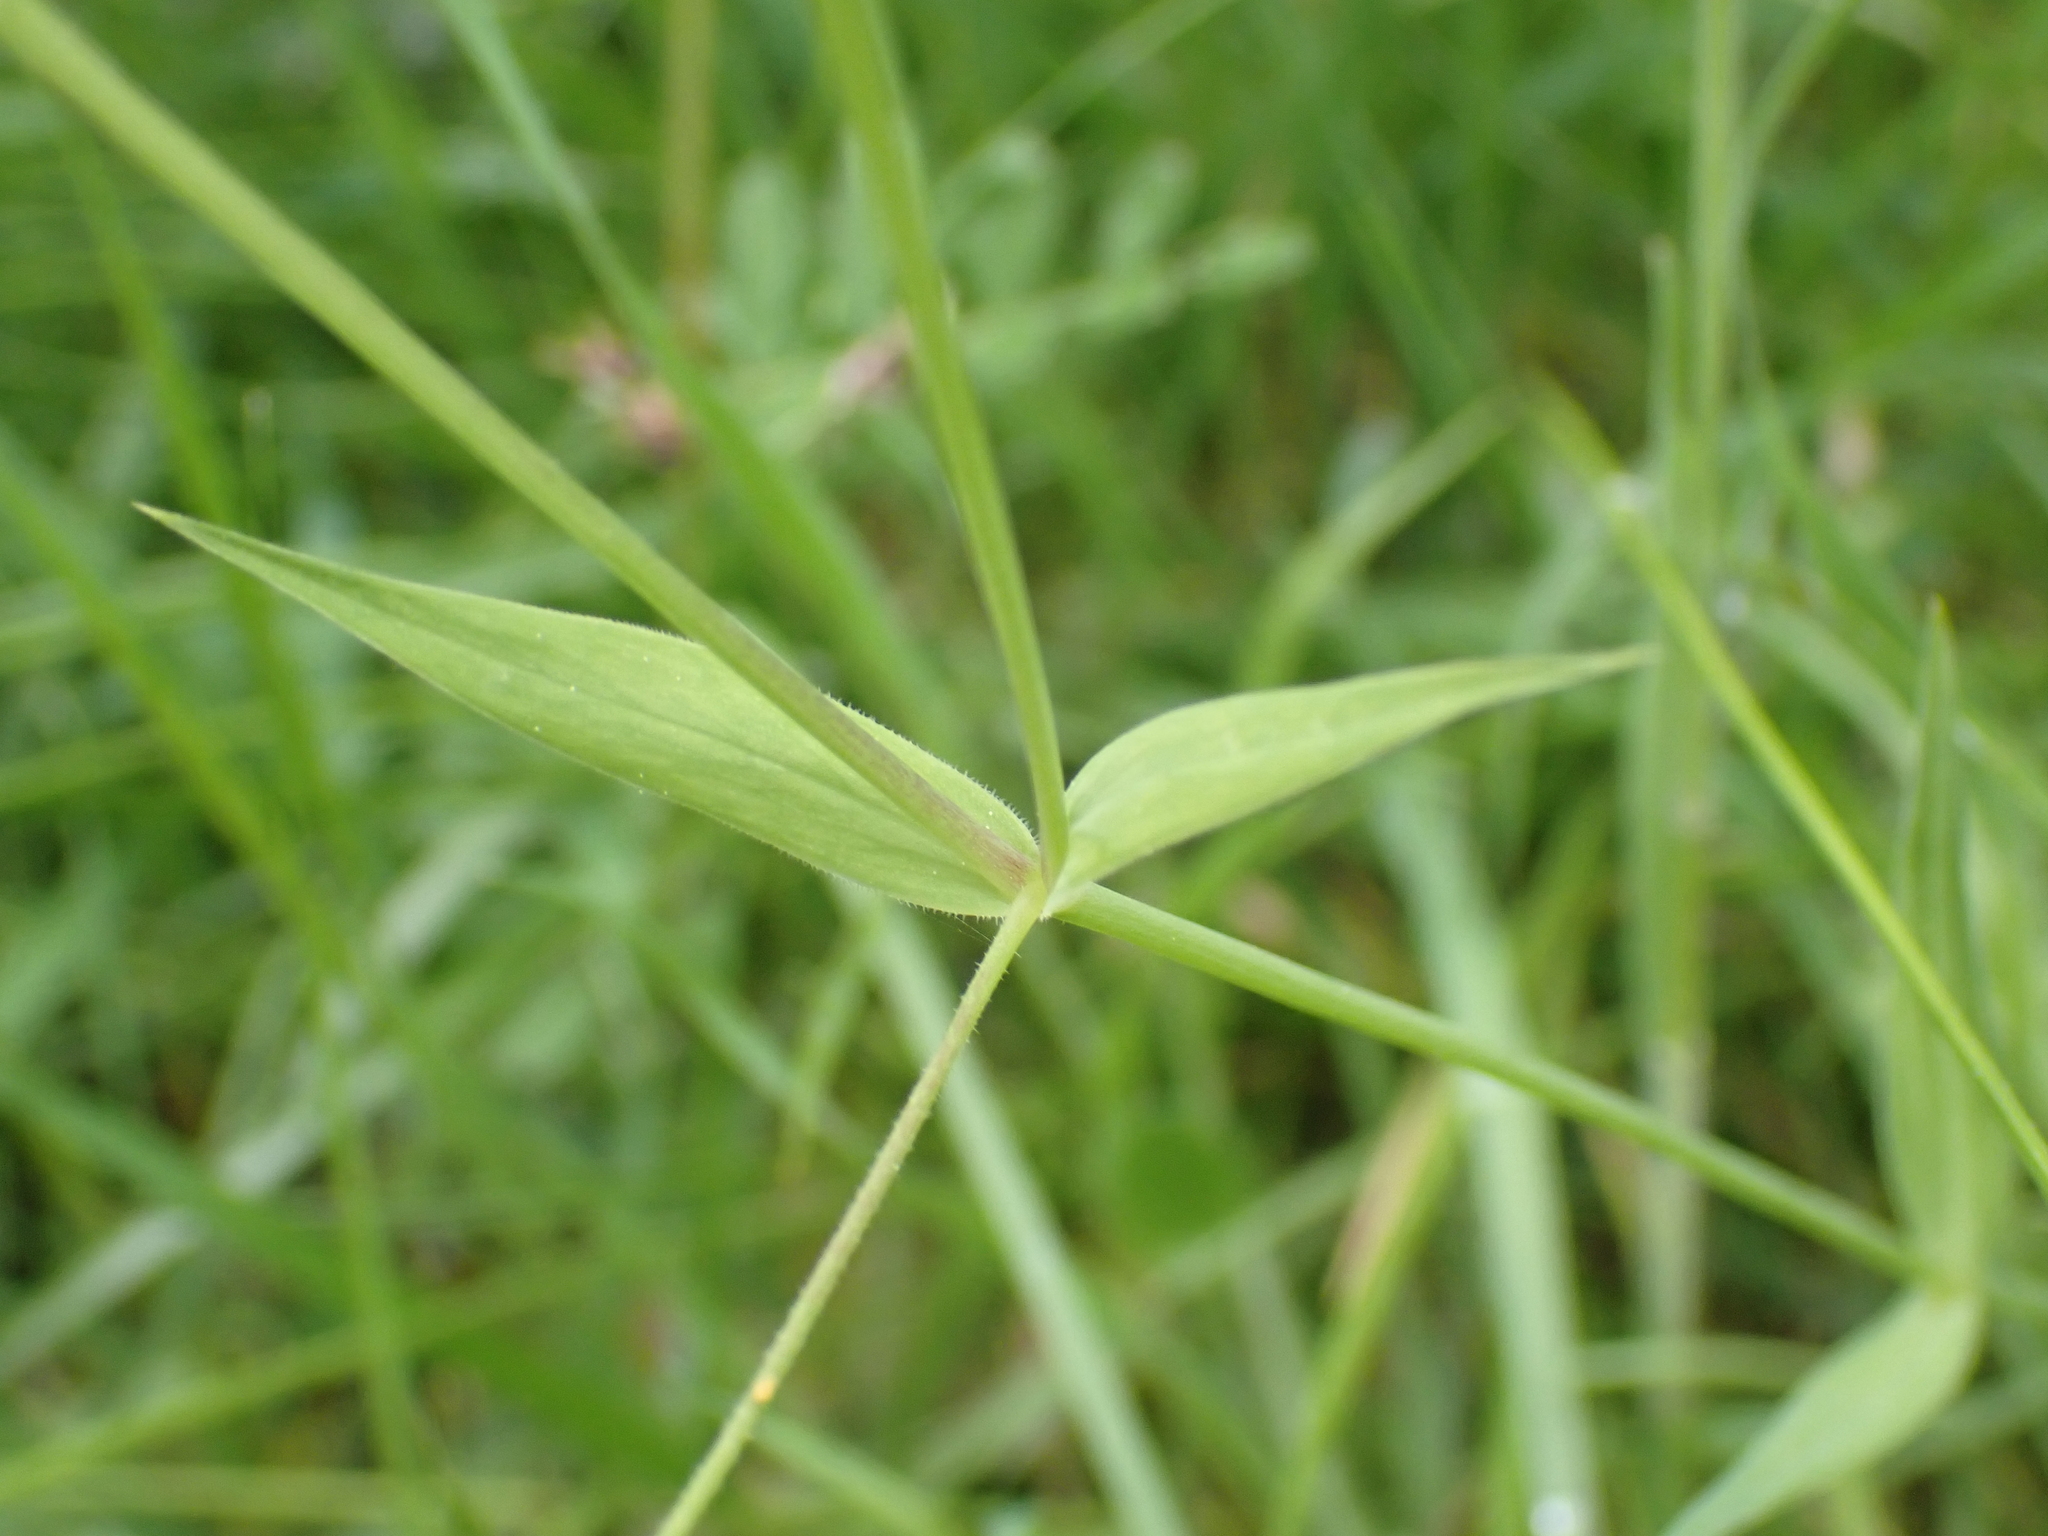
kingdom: Plantae
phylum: Tracheophyta
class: Magnoliopsida
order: Caryophyllales
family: Caryophyllaceae
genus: Rabelera
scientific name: Rabelera holostea
